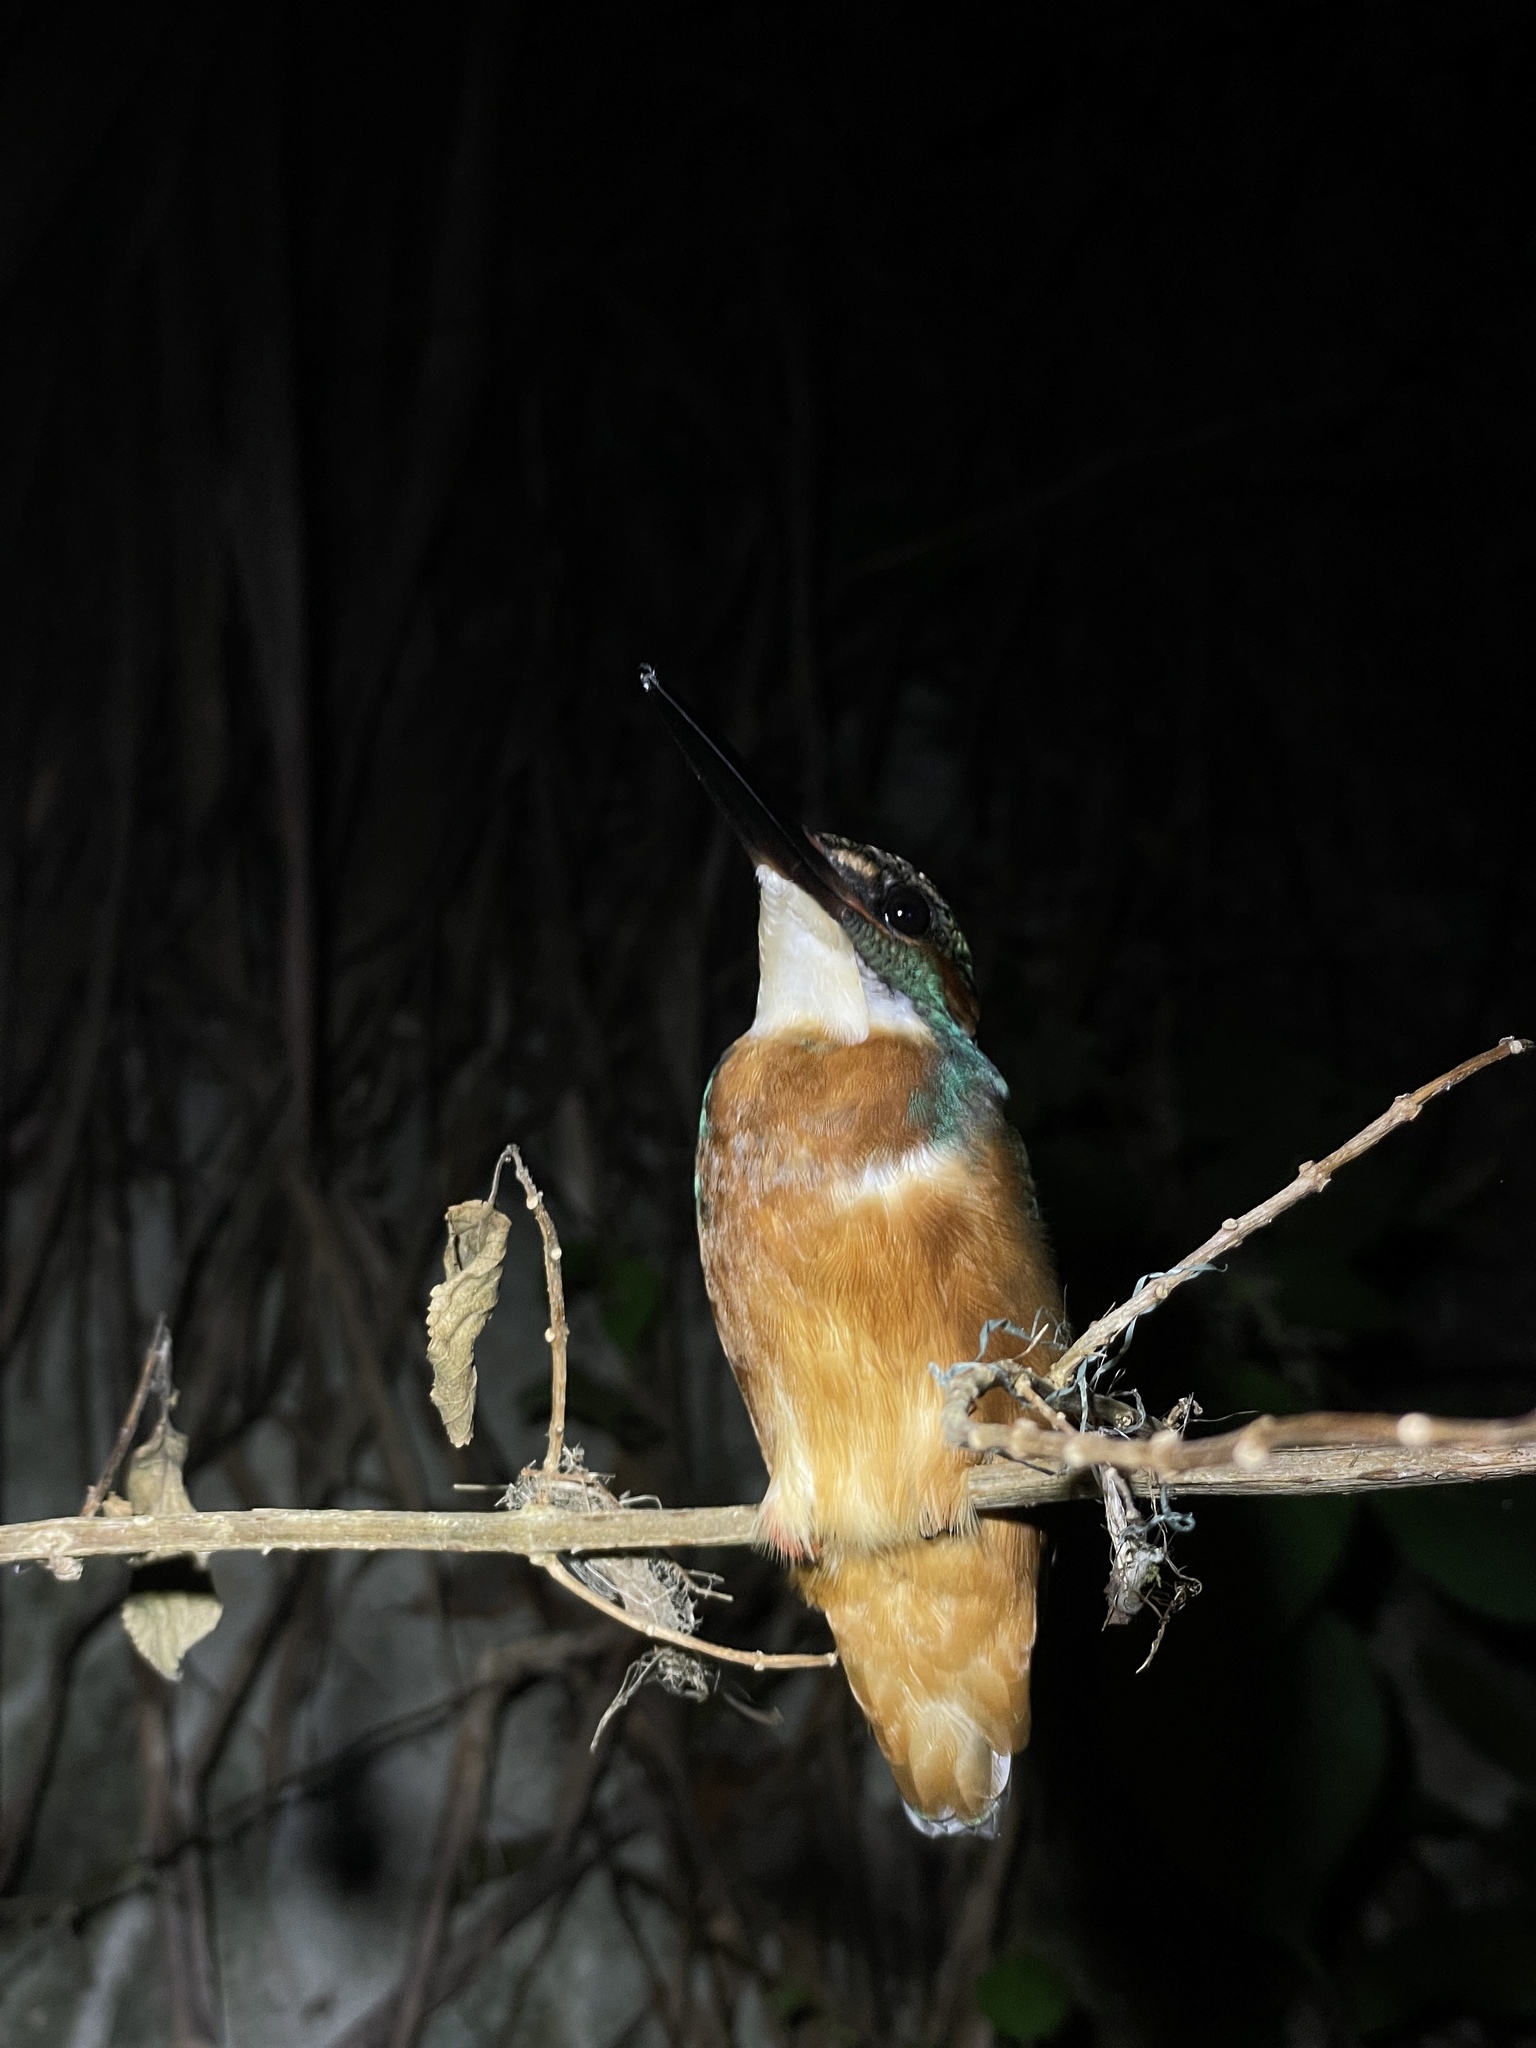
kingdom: Animalia
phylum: Chordata
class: Aves
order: Coraciiformes
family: Alcedinidae
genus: Alcedo
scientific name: Alcedo atthis
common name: Common kingfisher
